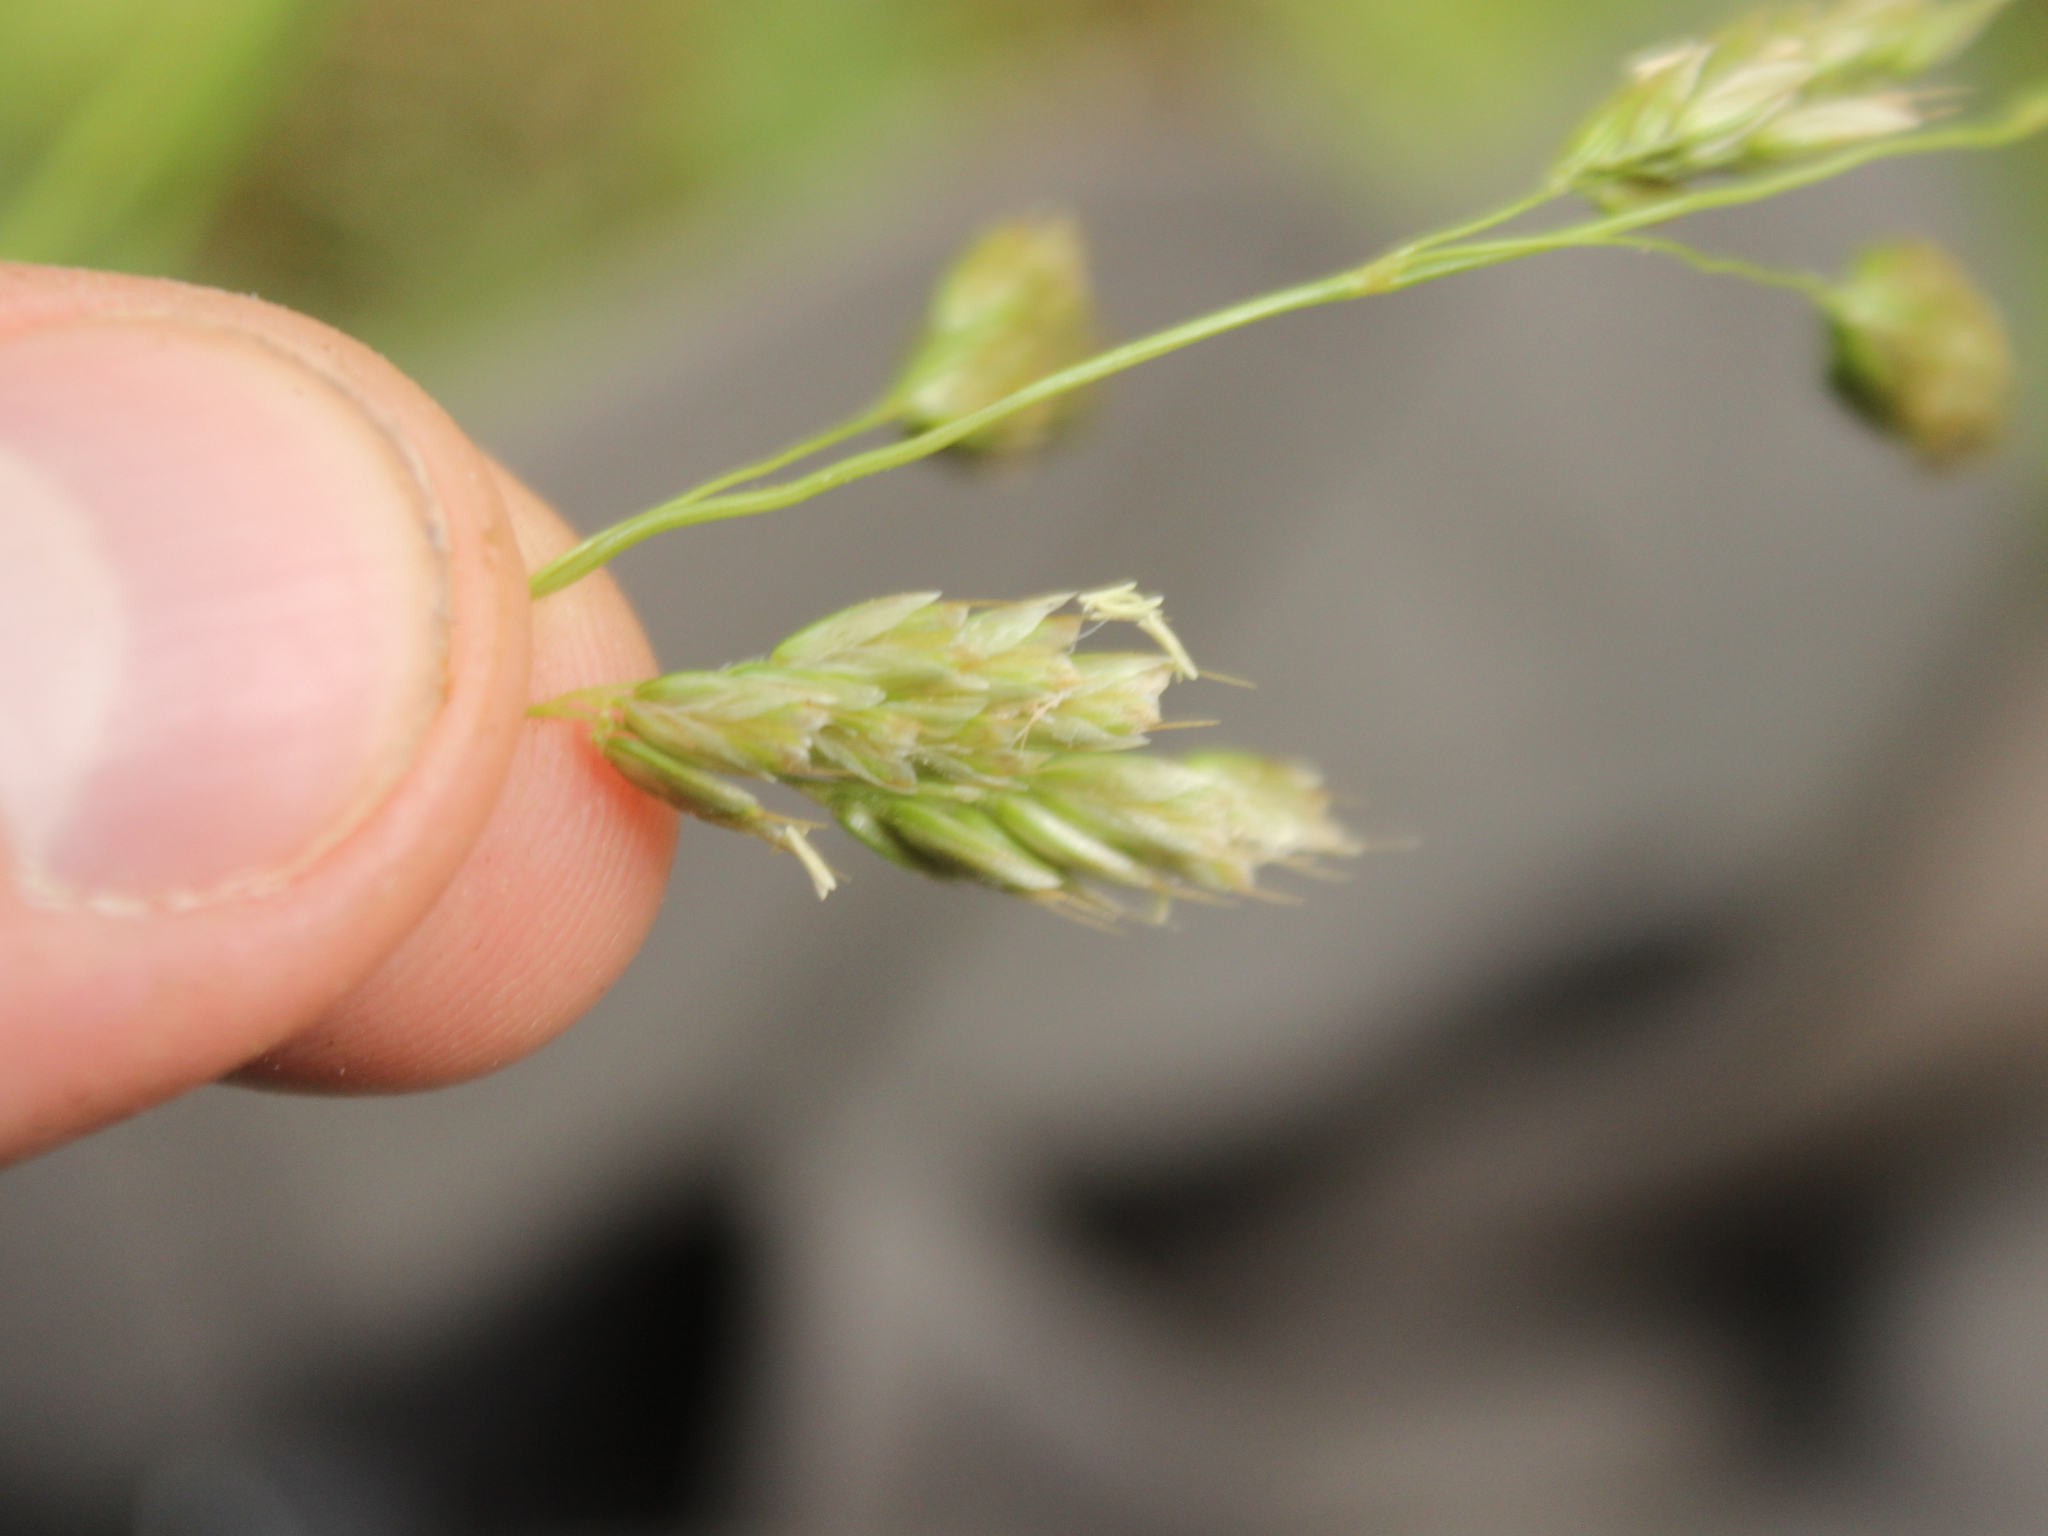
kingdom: Plantae
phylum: Tracheophyta
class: Liliopsida
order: Poales
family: Poaceae
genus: Anthoxanthum
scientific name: Anthoxanthum redolens
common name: Sweet holy grass
